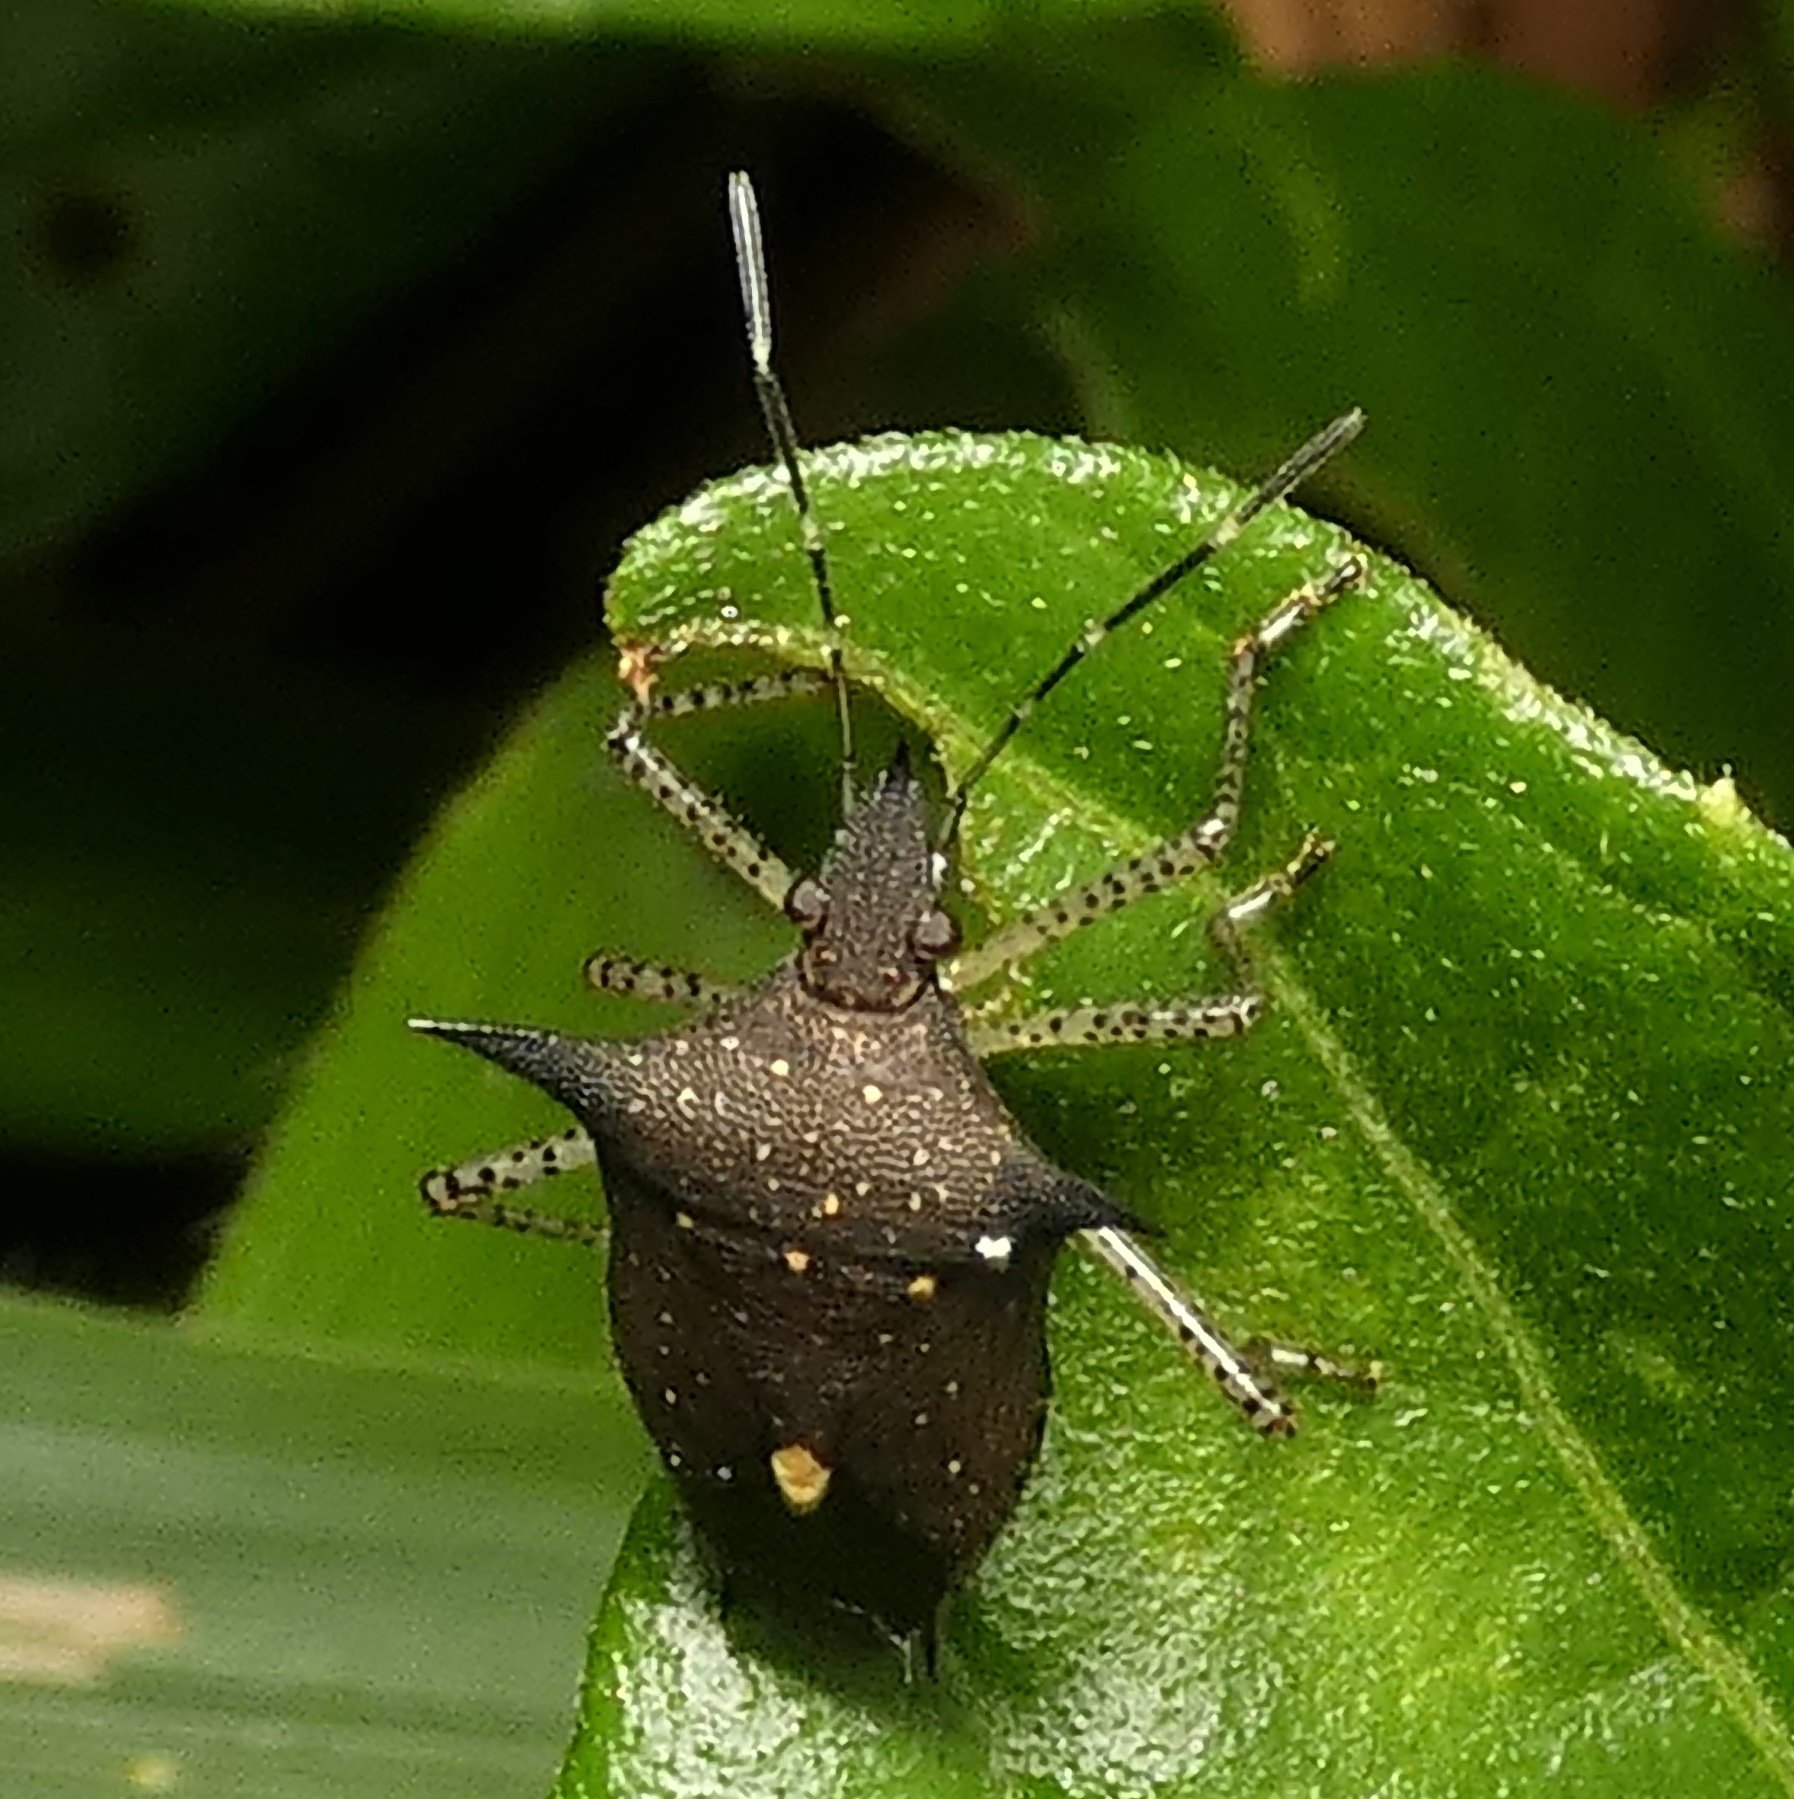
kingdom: Animalia
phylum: Arthropoda
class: Insecta
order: Hemiptera
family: Pentatomidae
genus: Proxys
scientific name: Proxys albopunctulatus
